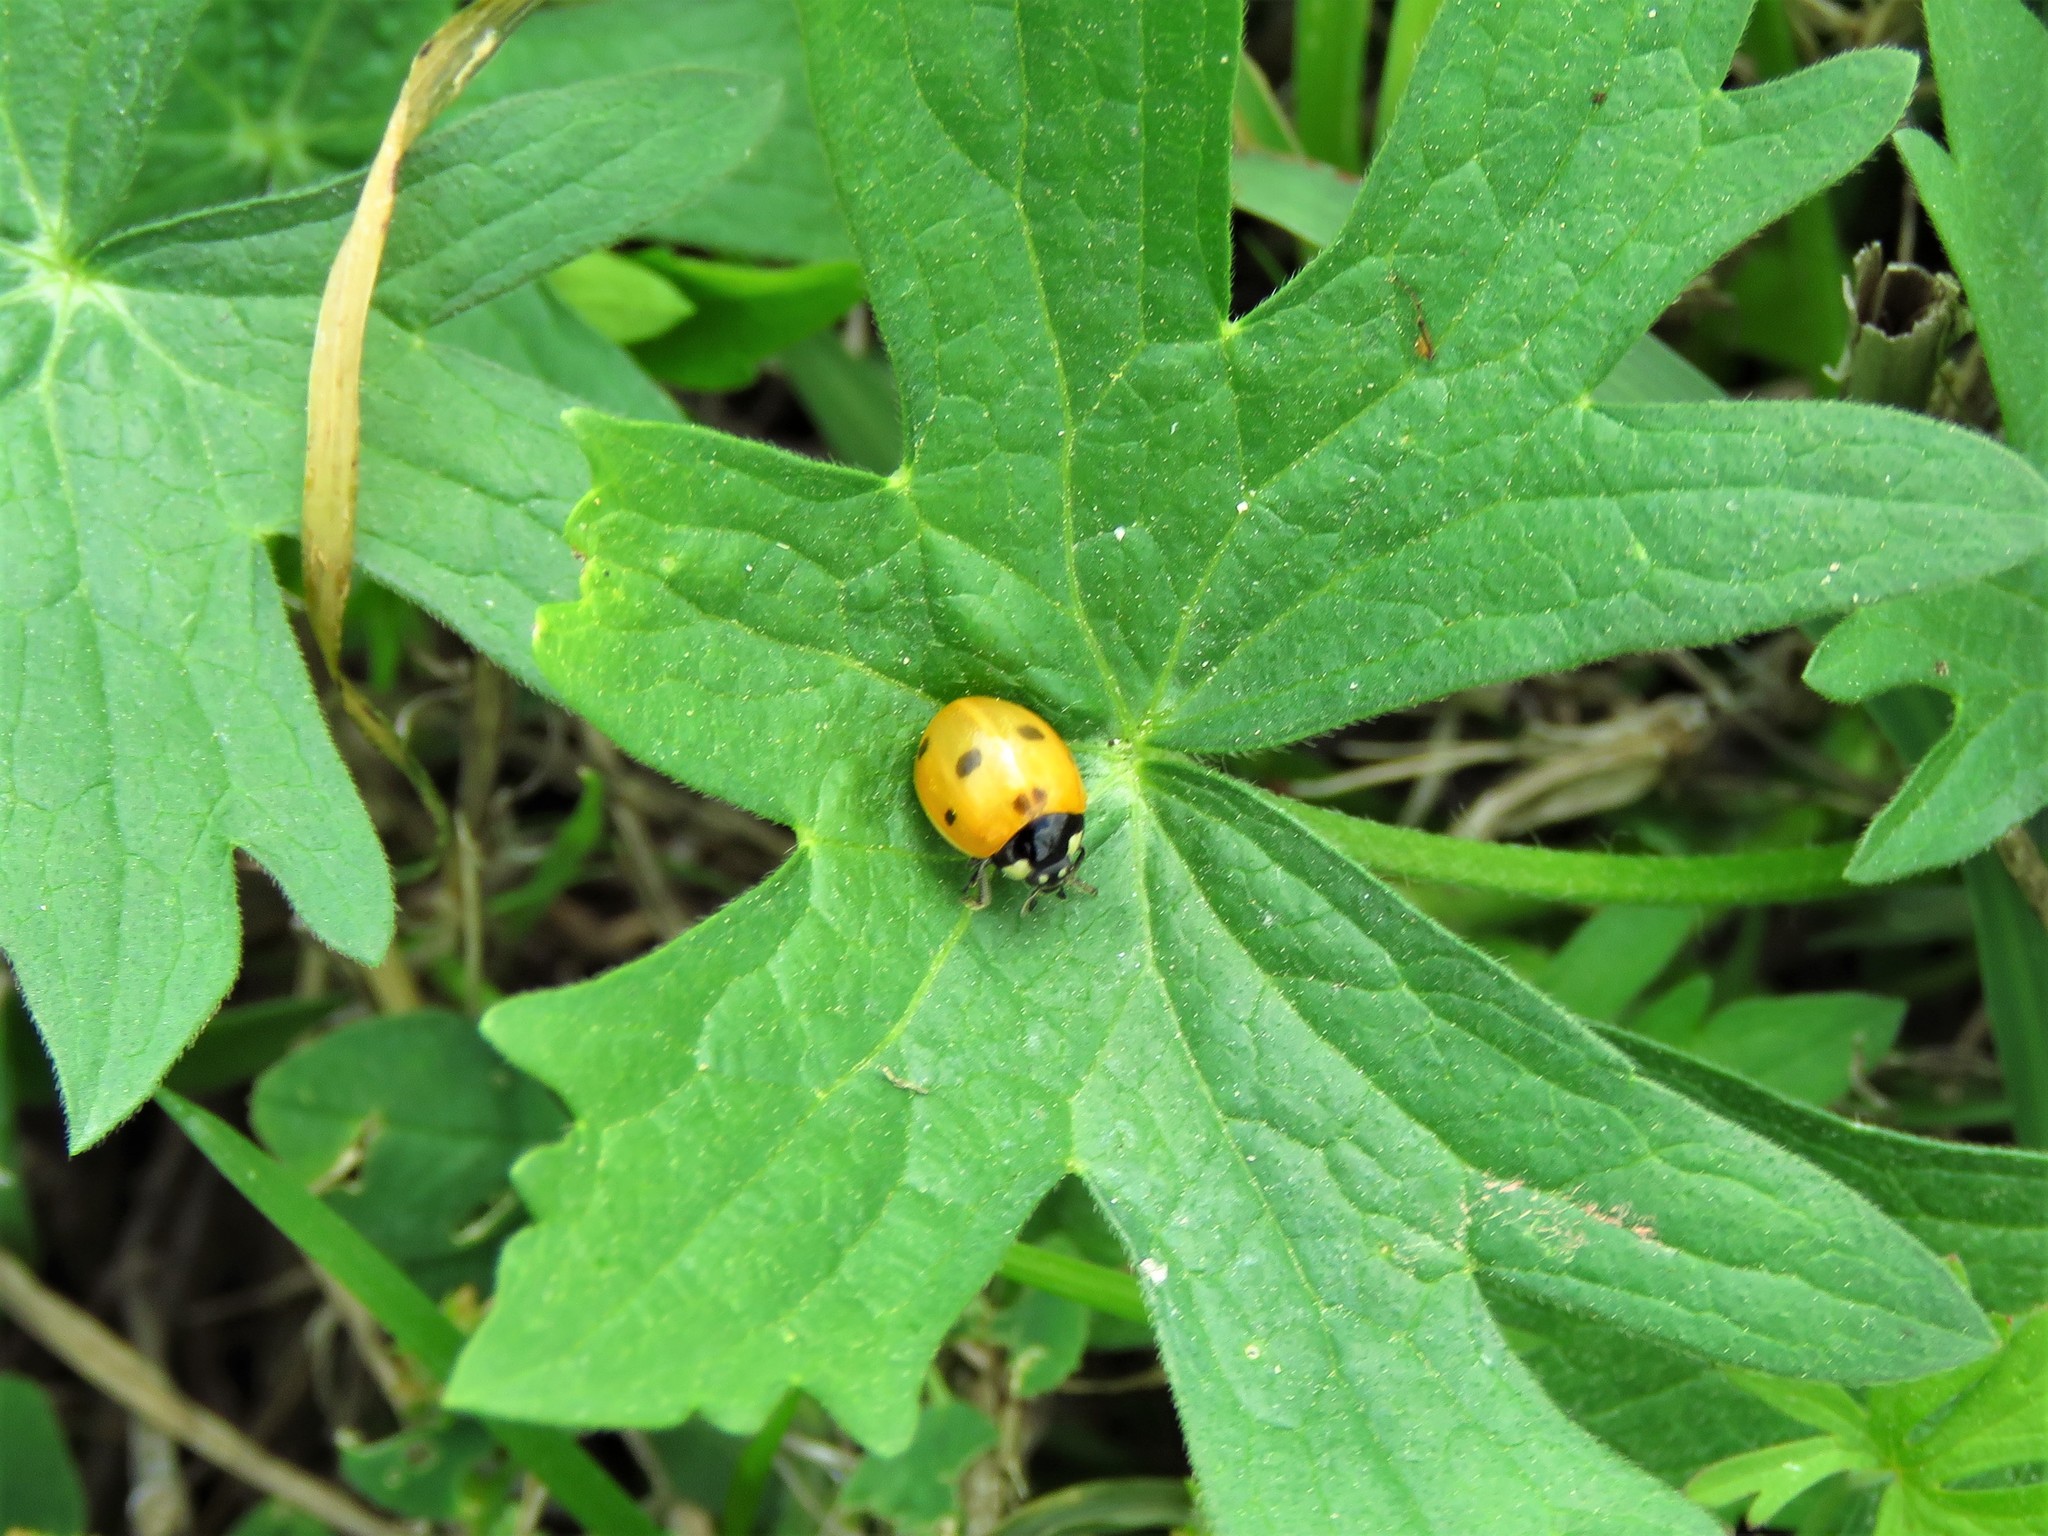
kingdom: Animalia
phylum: Arthropoda
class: Insecta
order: Coleoptera
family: Coccinellidae
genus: Coccinella
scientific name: Coccinella septempunctata
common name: Sevenspotted lady beetle
